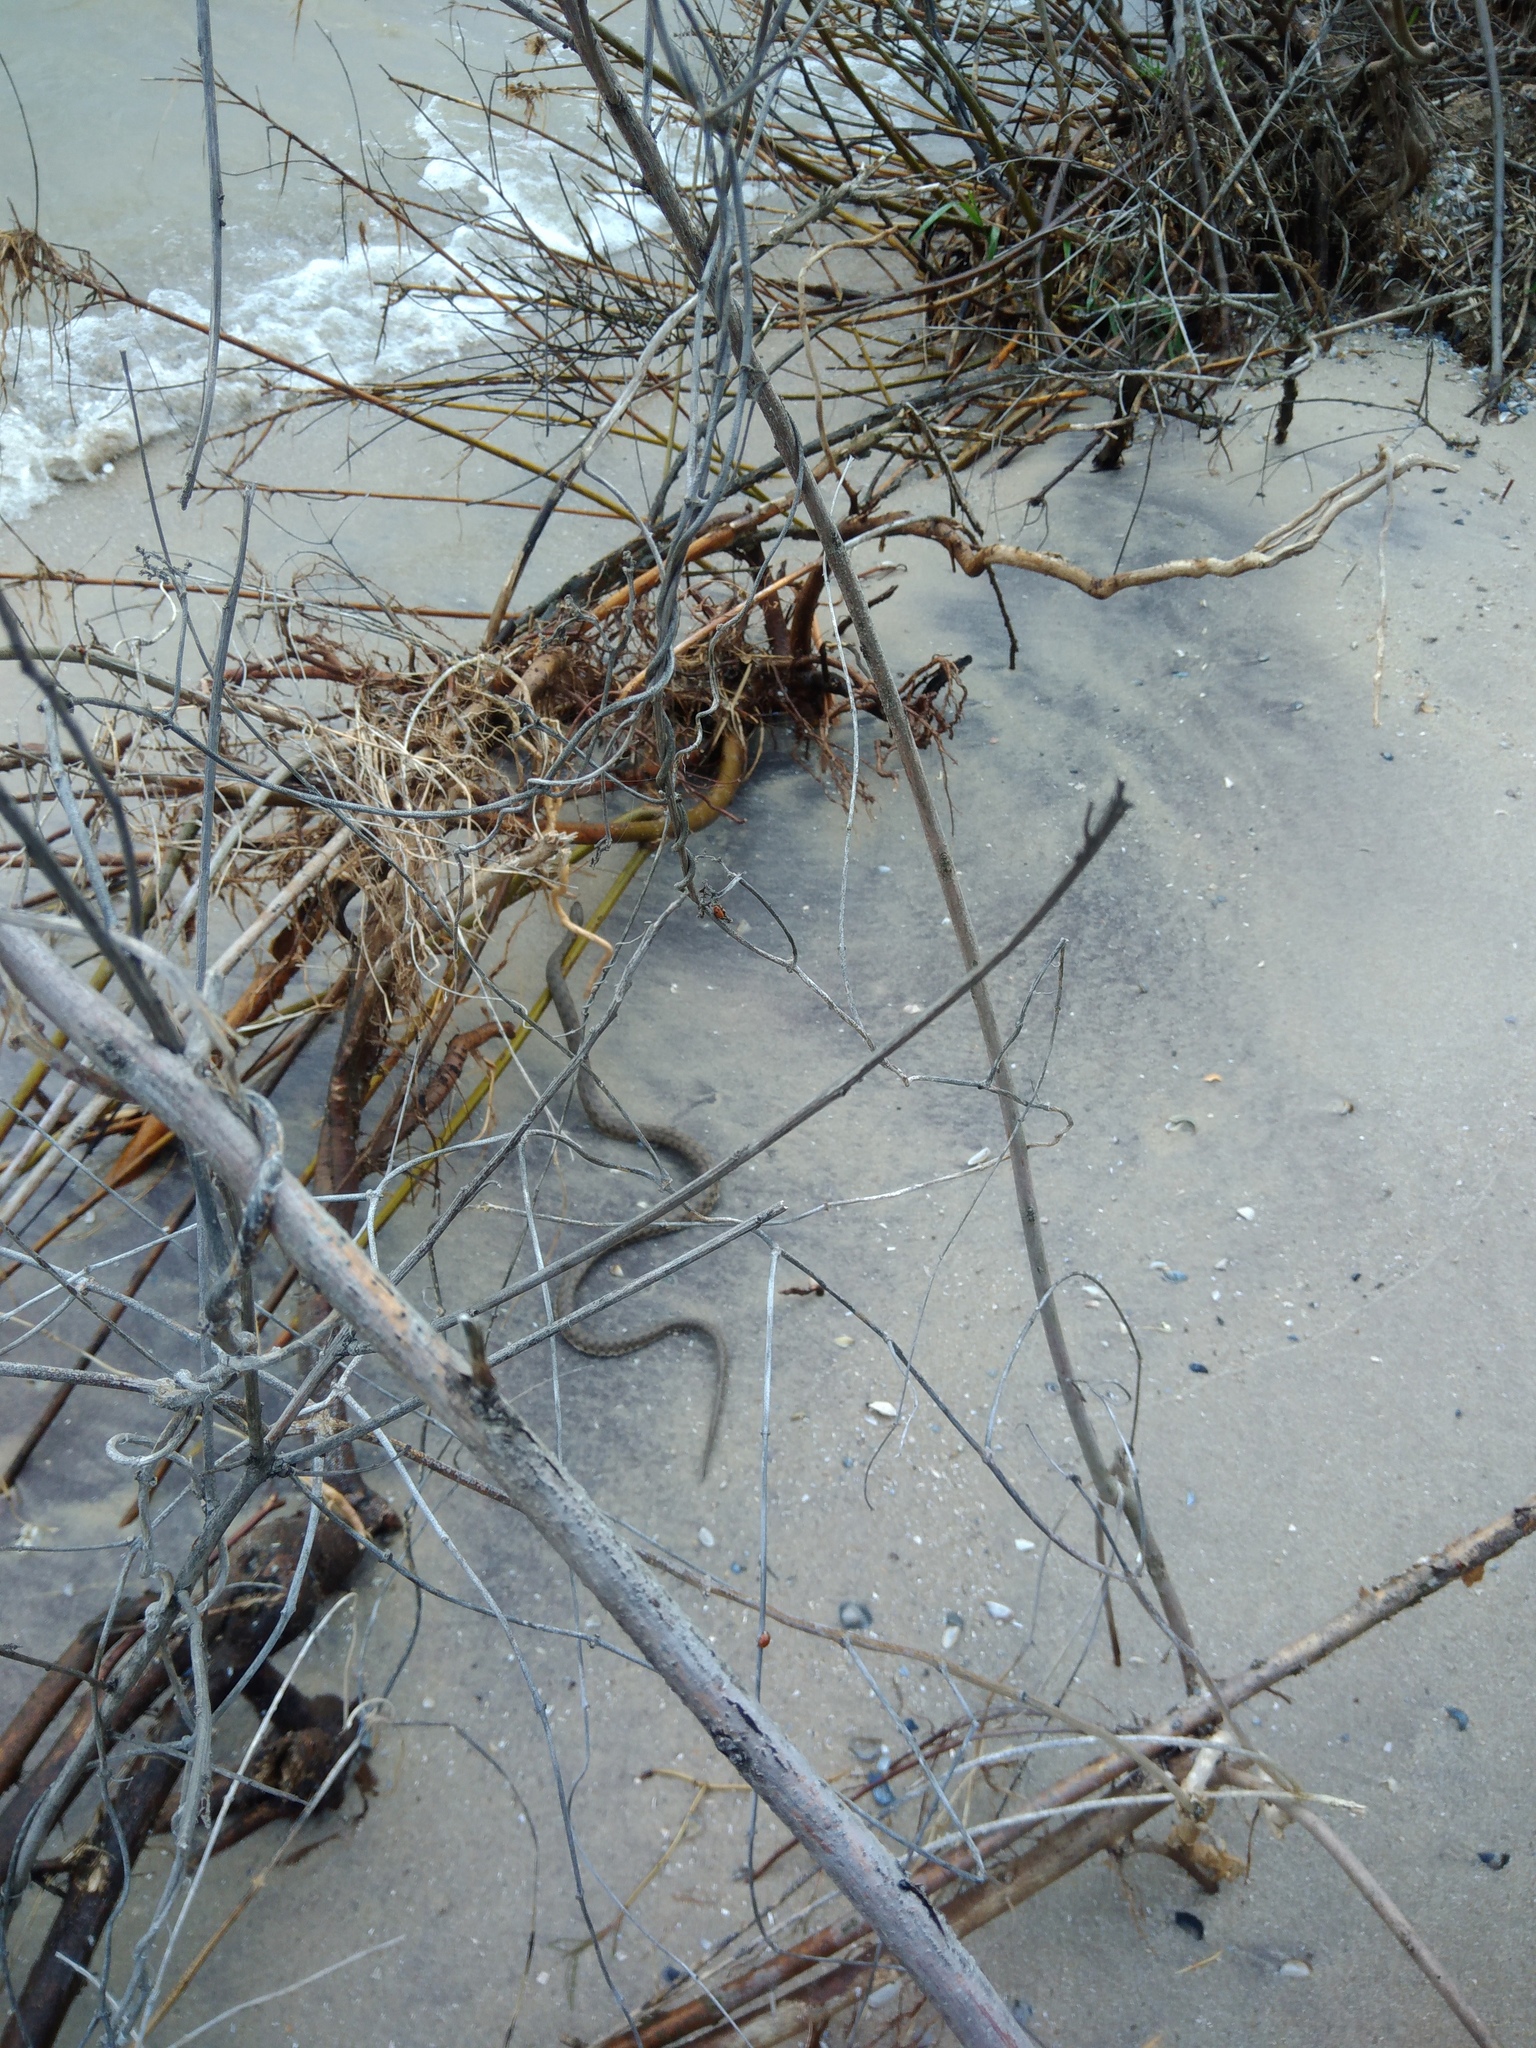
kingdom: Animalia
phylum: Chordata
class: Squamata
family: Colubridae
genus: Natrix
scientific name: Natrix tessellata
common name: Dice snake
